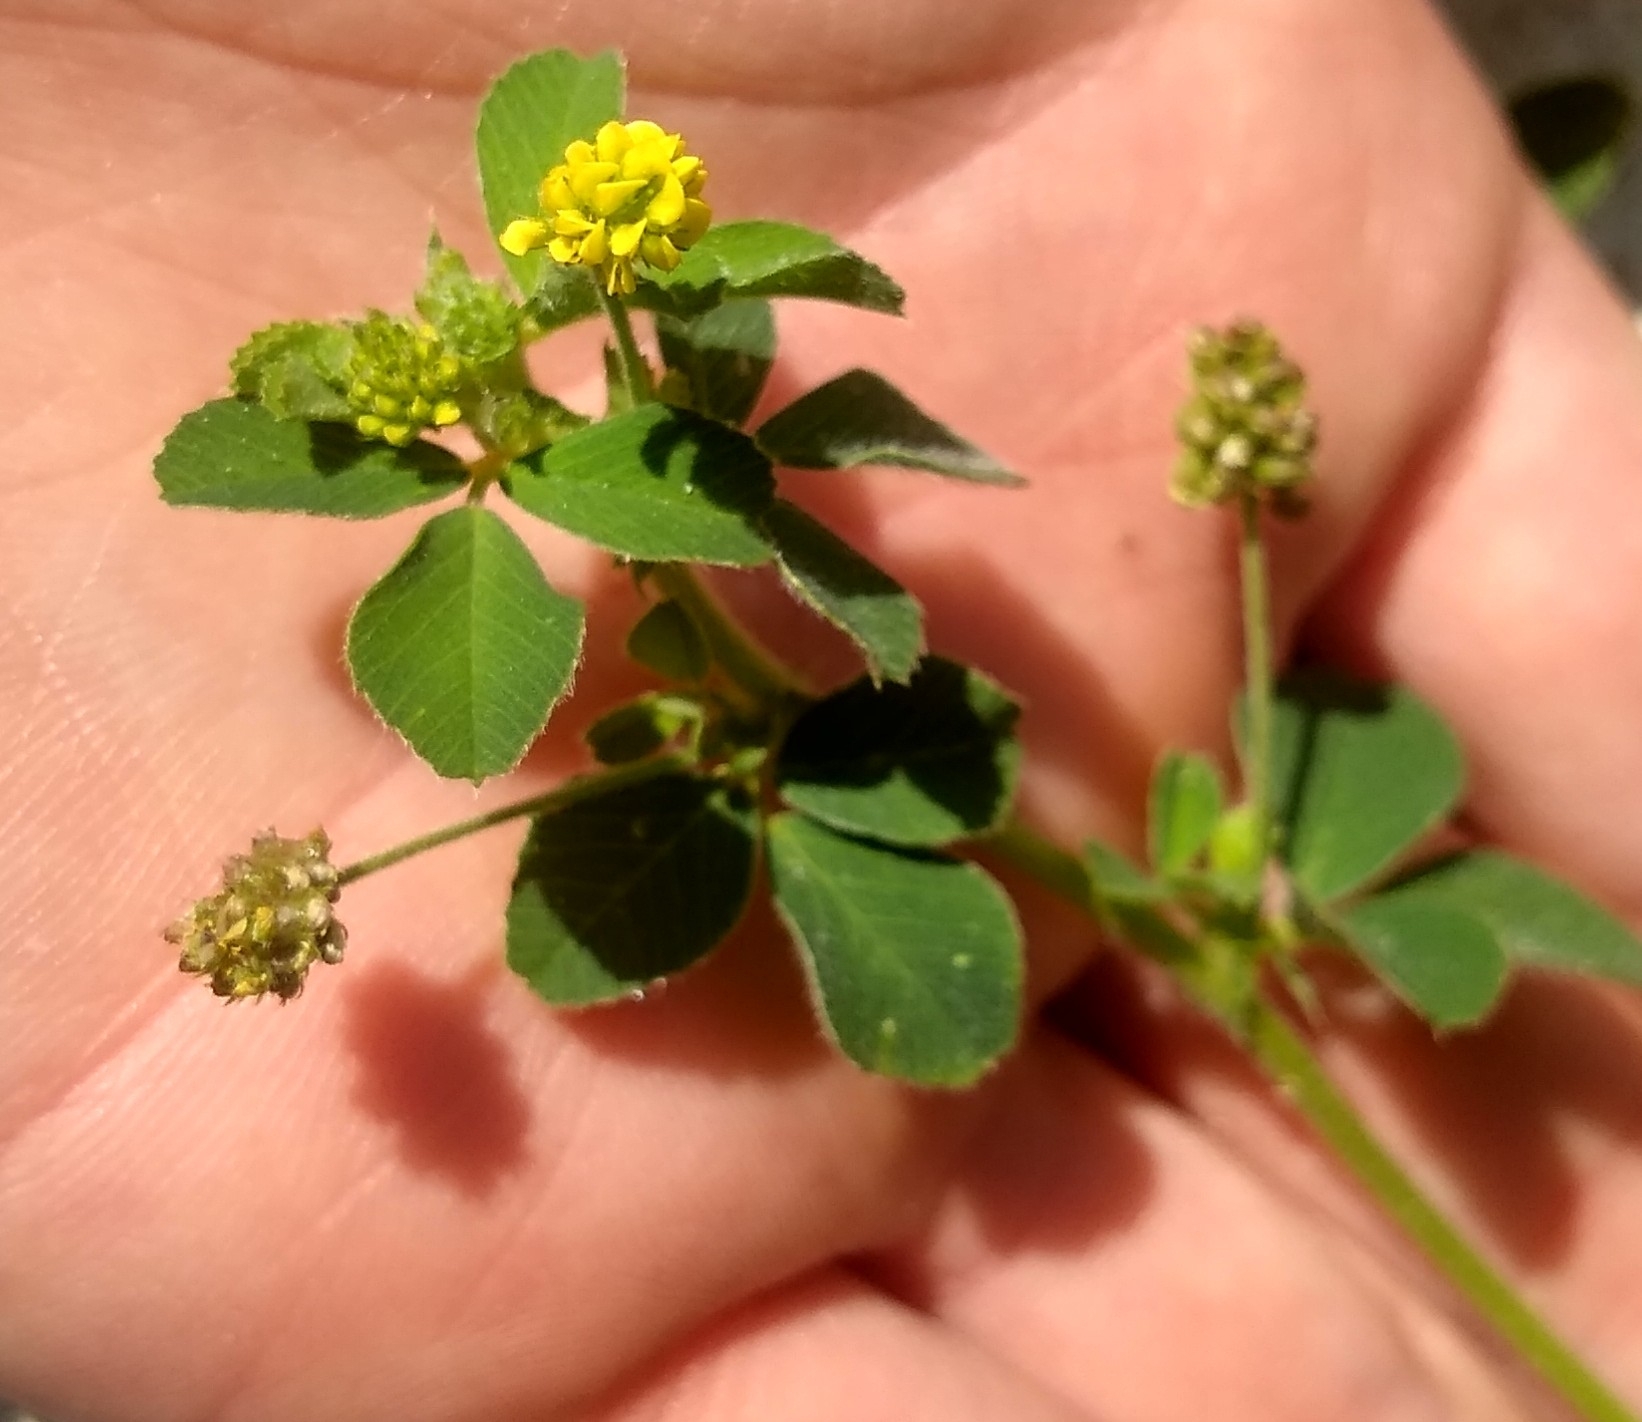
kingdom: Plantae
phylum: Tracheophyta
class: Magnoliopsida
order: Fabales
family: Fabaceae
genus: Medicago
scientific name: Medicago lupulina
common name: Black medick
